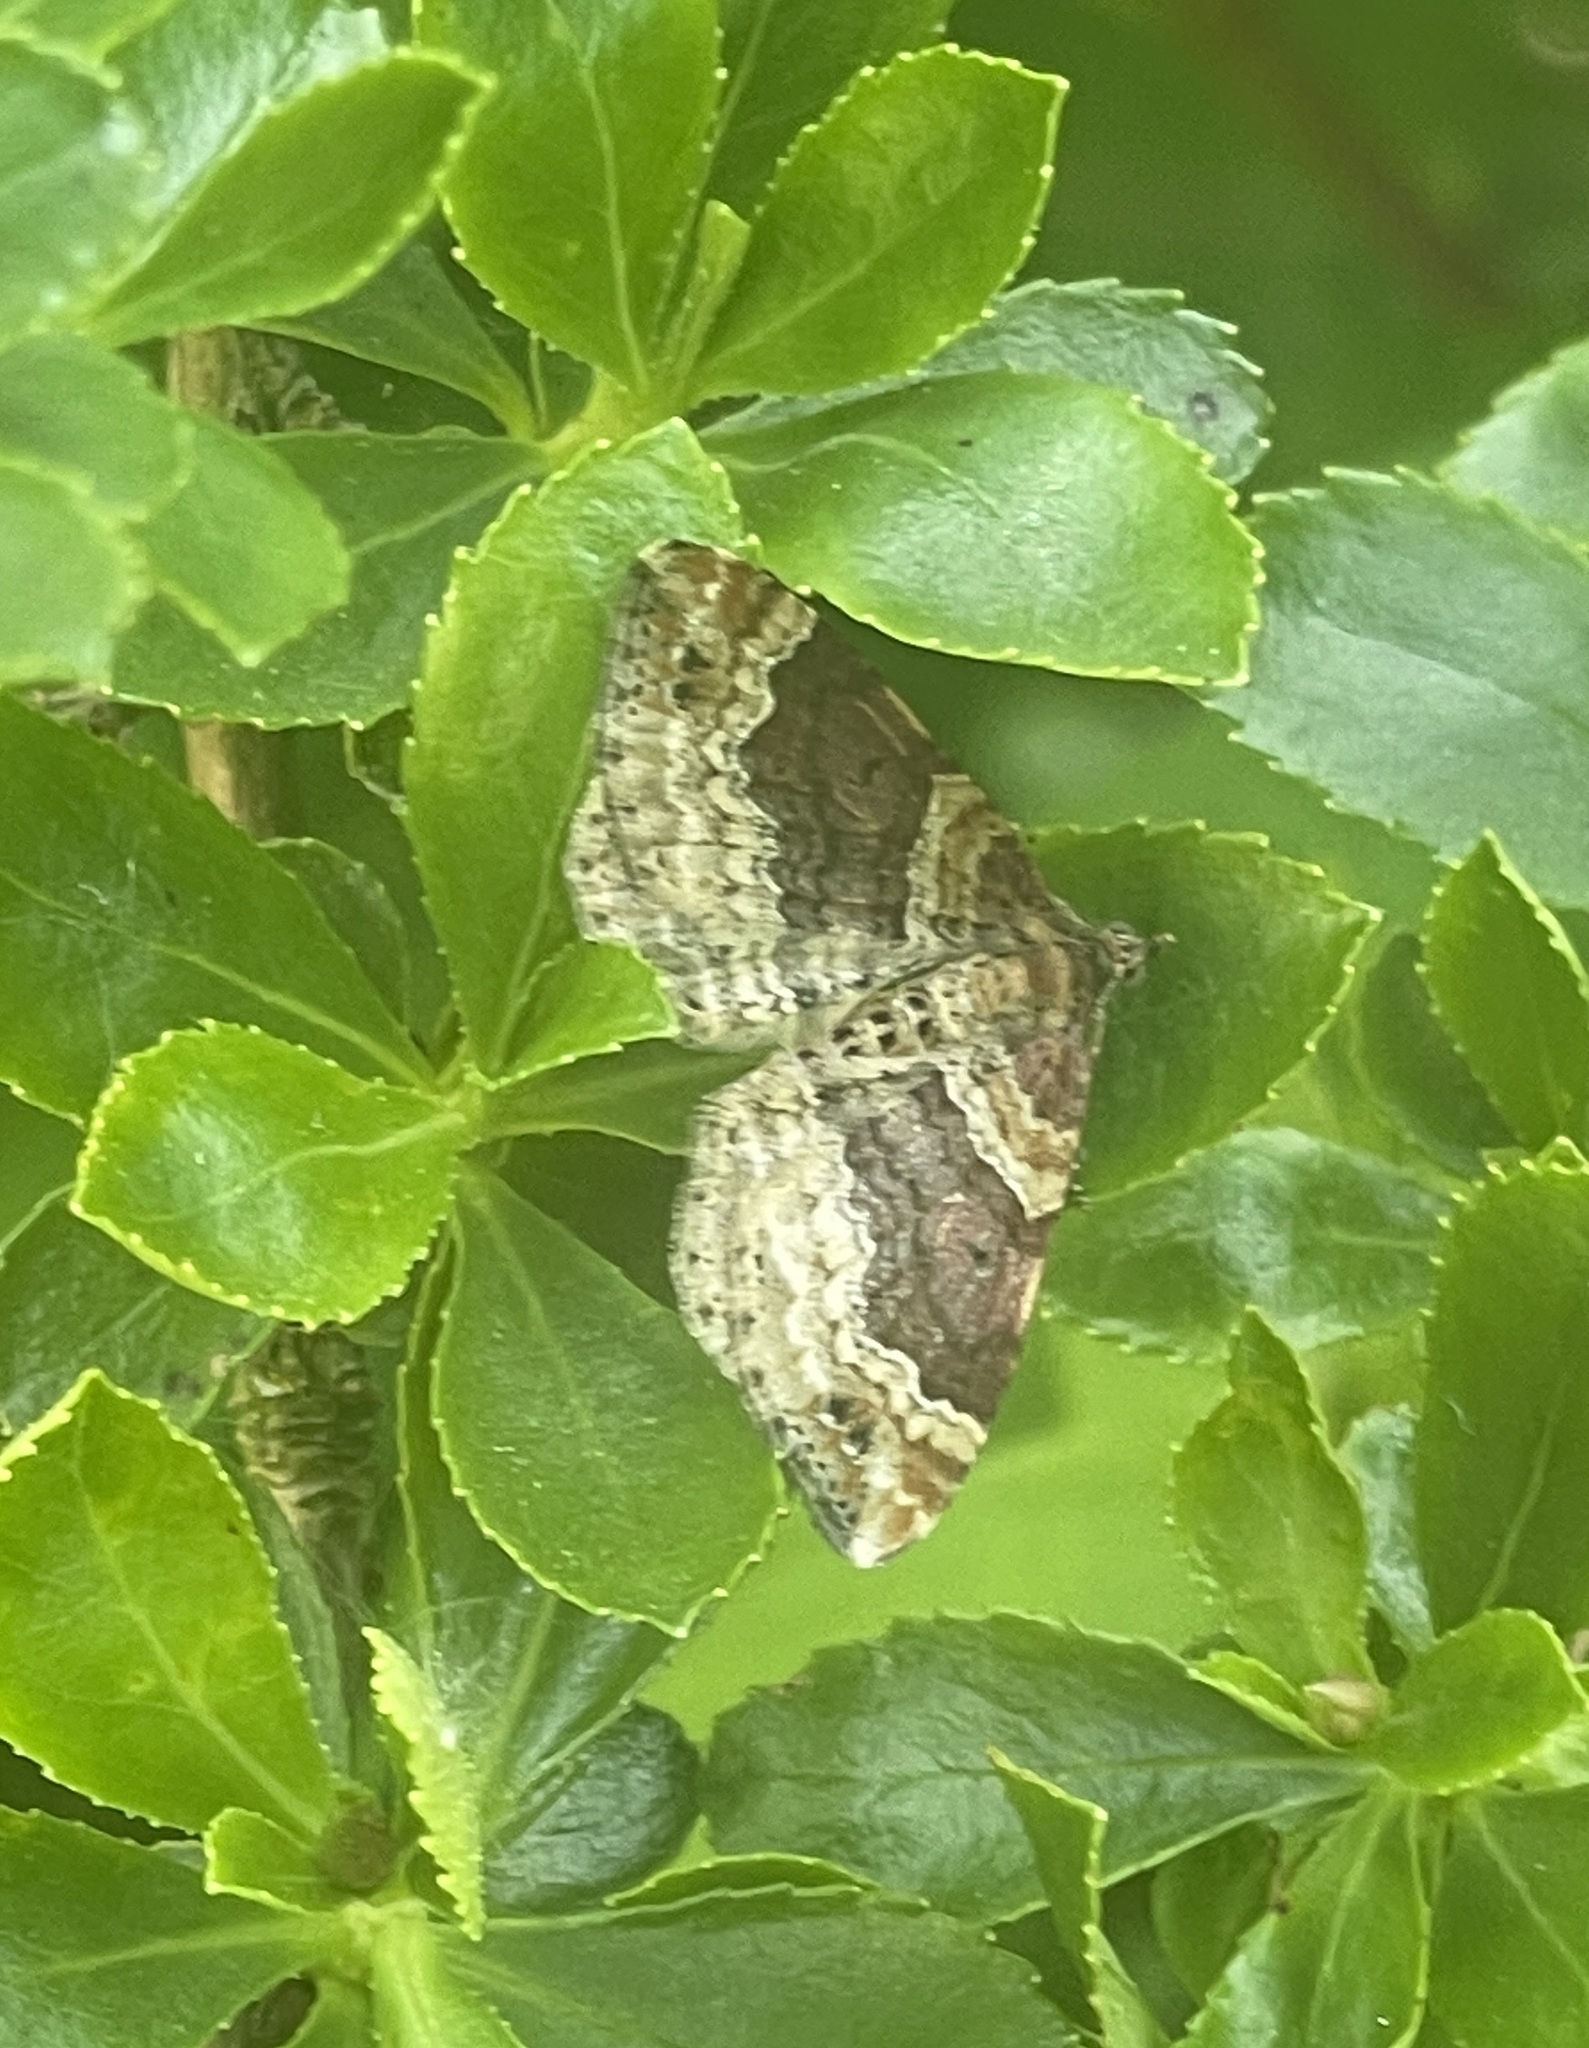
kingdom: Animalia
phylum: Arthropoda
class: Insecta
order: Lepidoptera
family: Geometridae
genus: Xanthorhoe
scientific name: Xanthorhoe spadicearia
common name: Red twin-spot carpet
